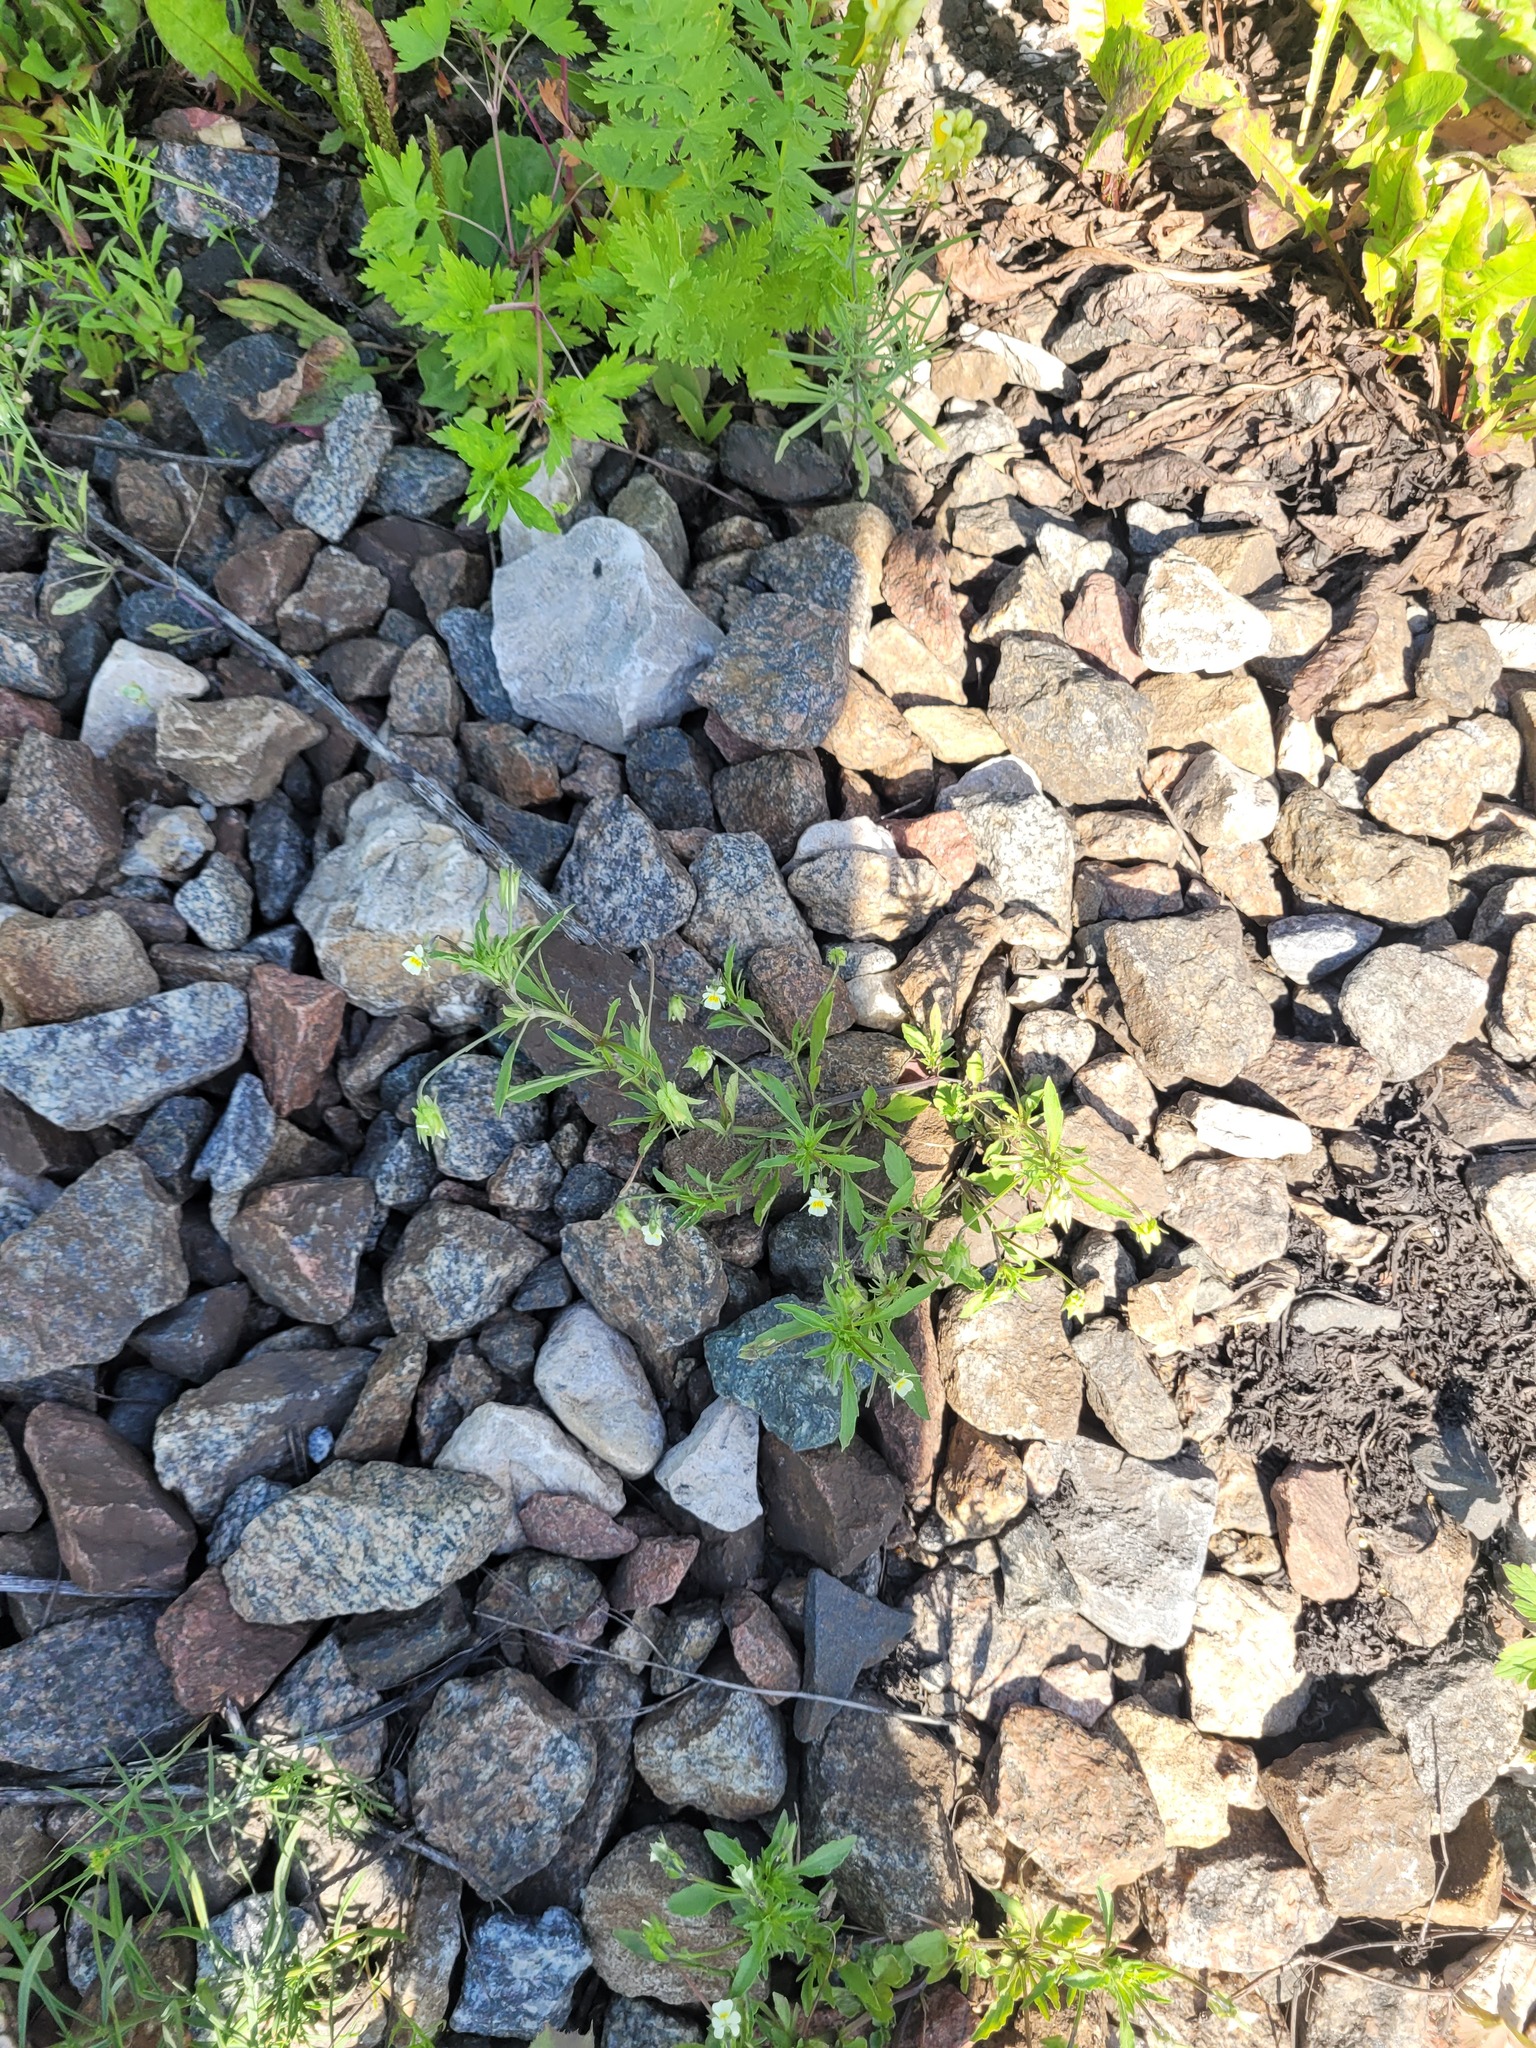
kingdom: Plantae
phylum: Tracheophyta
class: Magnoliopsida
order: Malpighiales
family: Violaceae
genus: Viola
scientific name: Viola arvensis
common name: Field pansy
